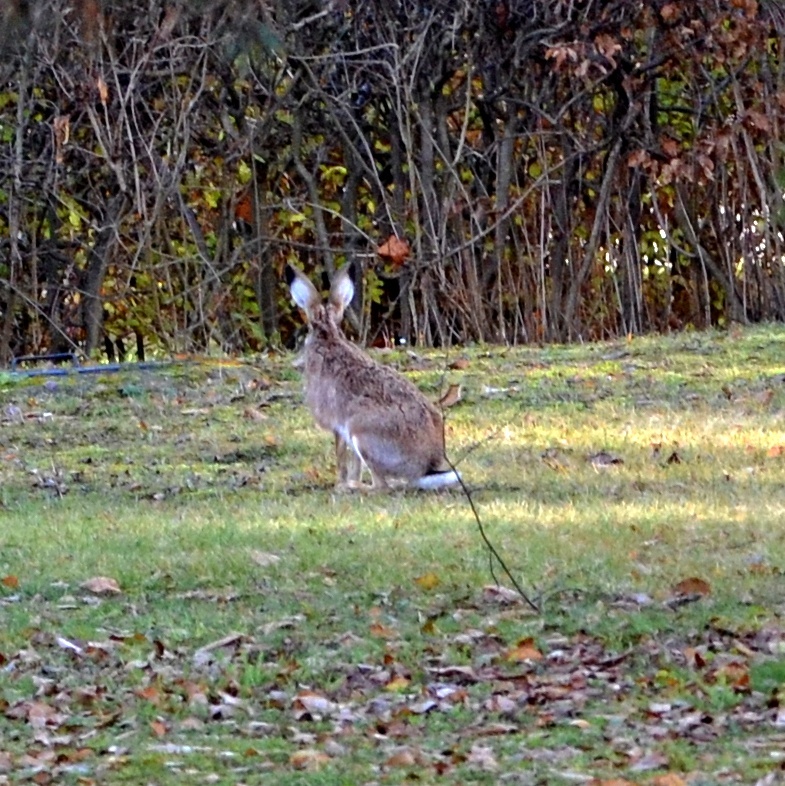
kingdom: Animalia
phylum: Chordata
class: Mammalia
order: Lagomorpha
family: Leporidae
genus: Lepus
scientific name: Lepus europaeus
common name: European hare
